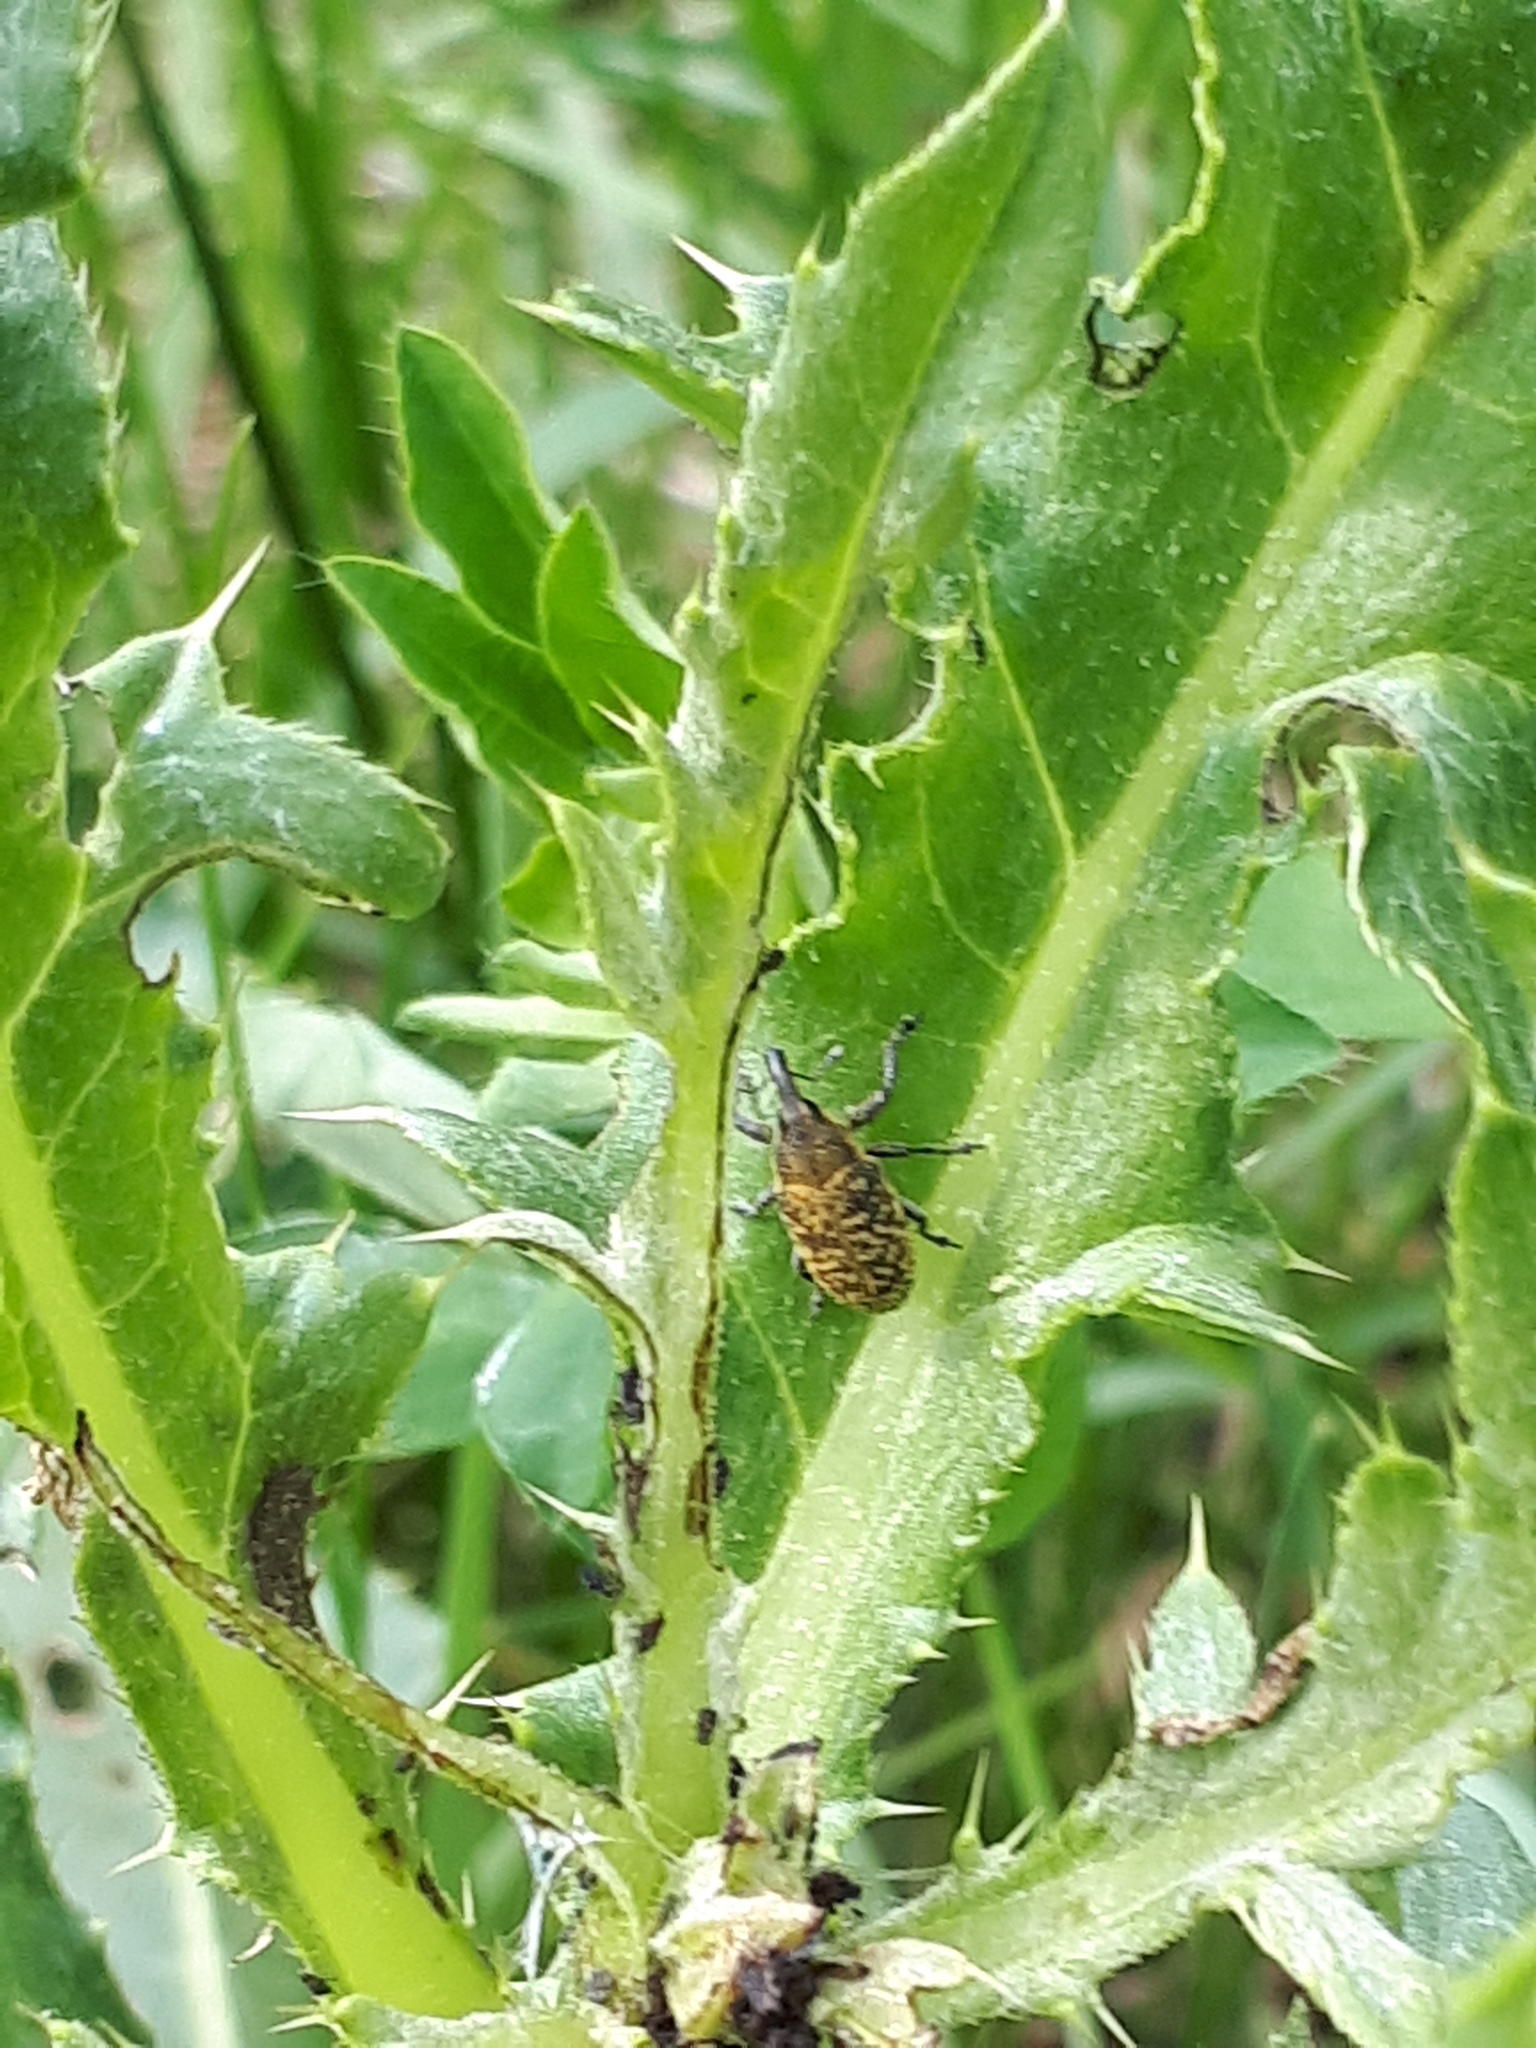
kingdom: Animalia
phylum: Arthropoda
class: Insecta
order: Coleoptera
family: Curculionidae
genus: Larinus
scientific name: Larinus carlinae
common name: Weevil
